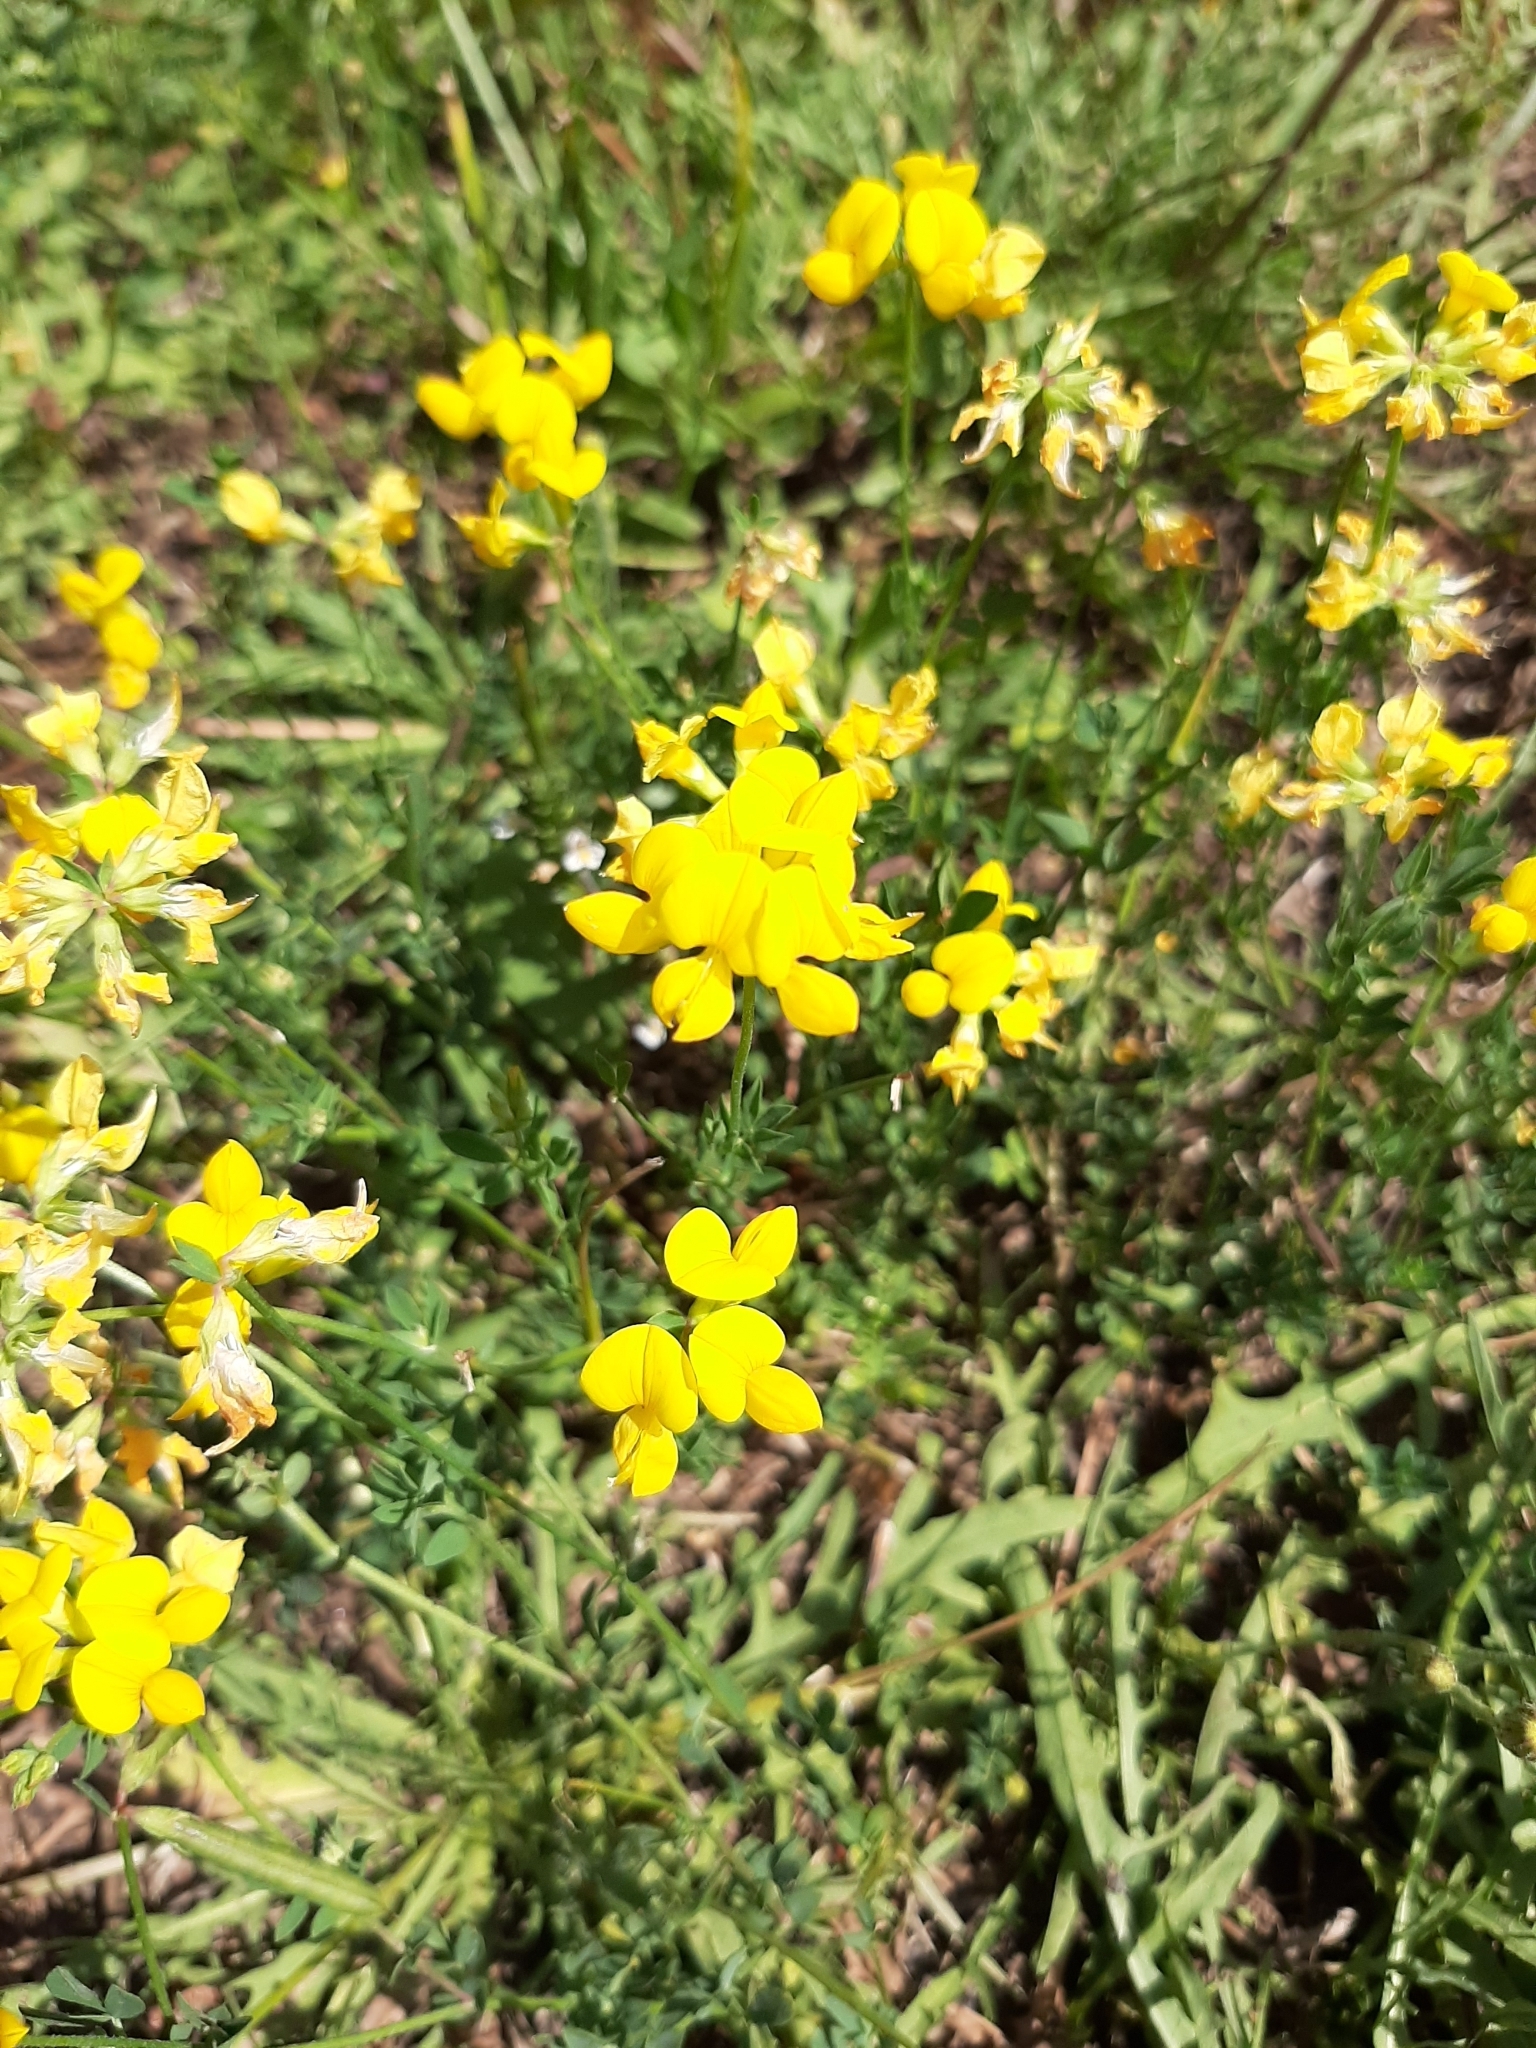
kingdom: Plantae
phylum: Tracheophyta
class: Magnoliopsida
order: Fabales
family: Fabaceae
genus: Lotus
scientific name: Lotus corniculatus
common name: Common bird's-foot-trefoil
